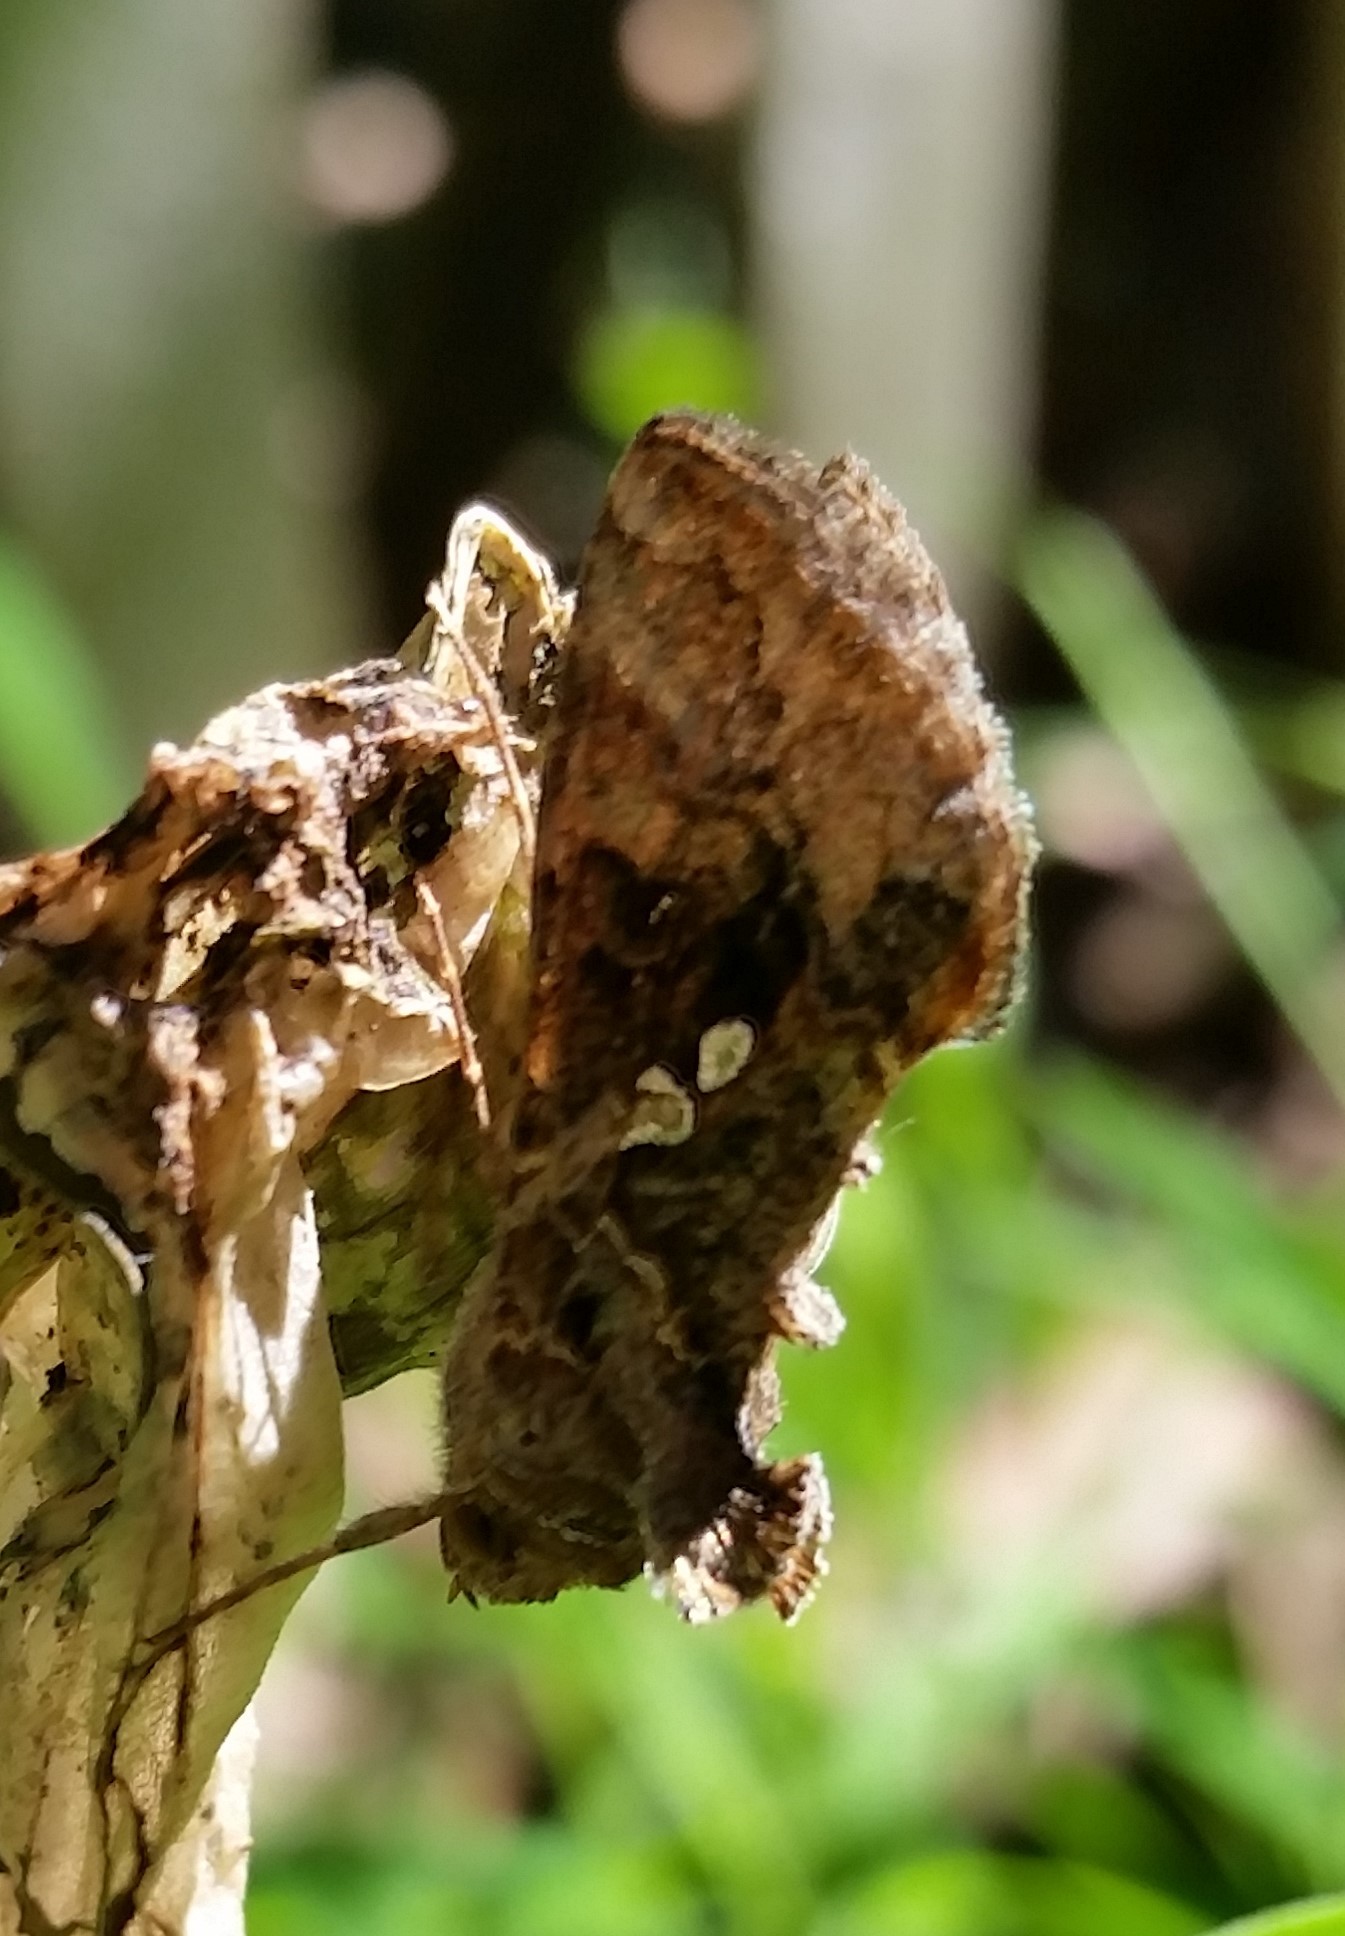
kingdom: Animalia
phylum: Arthropoda
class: Insecta
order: Lepidoptera
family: Noctuidae
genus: Chrysodeixis
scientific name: Chrysodeixis includens
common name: Cutworm moth
